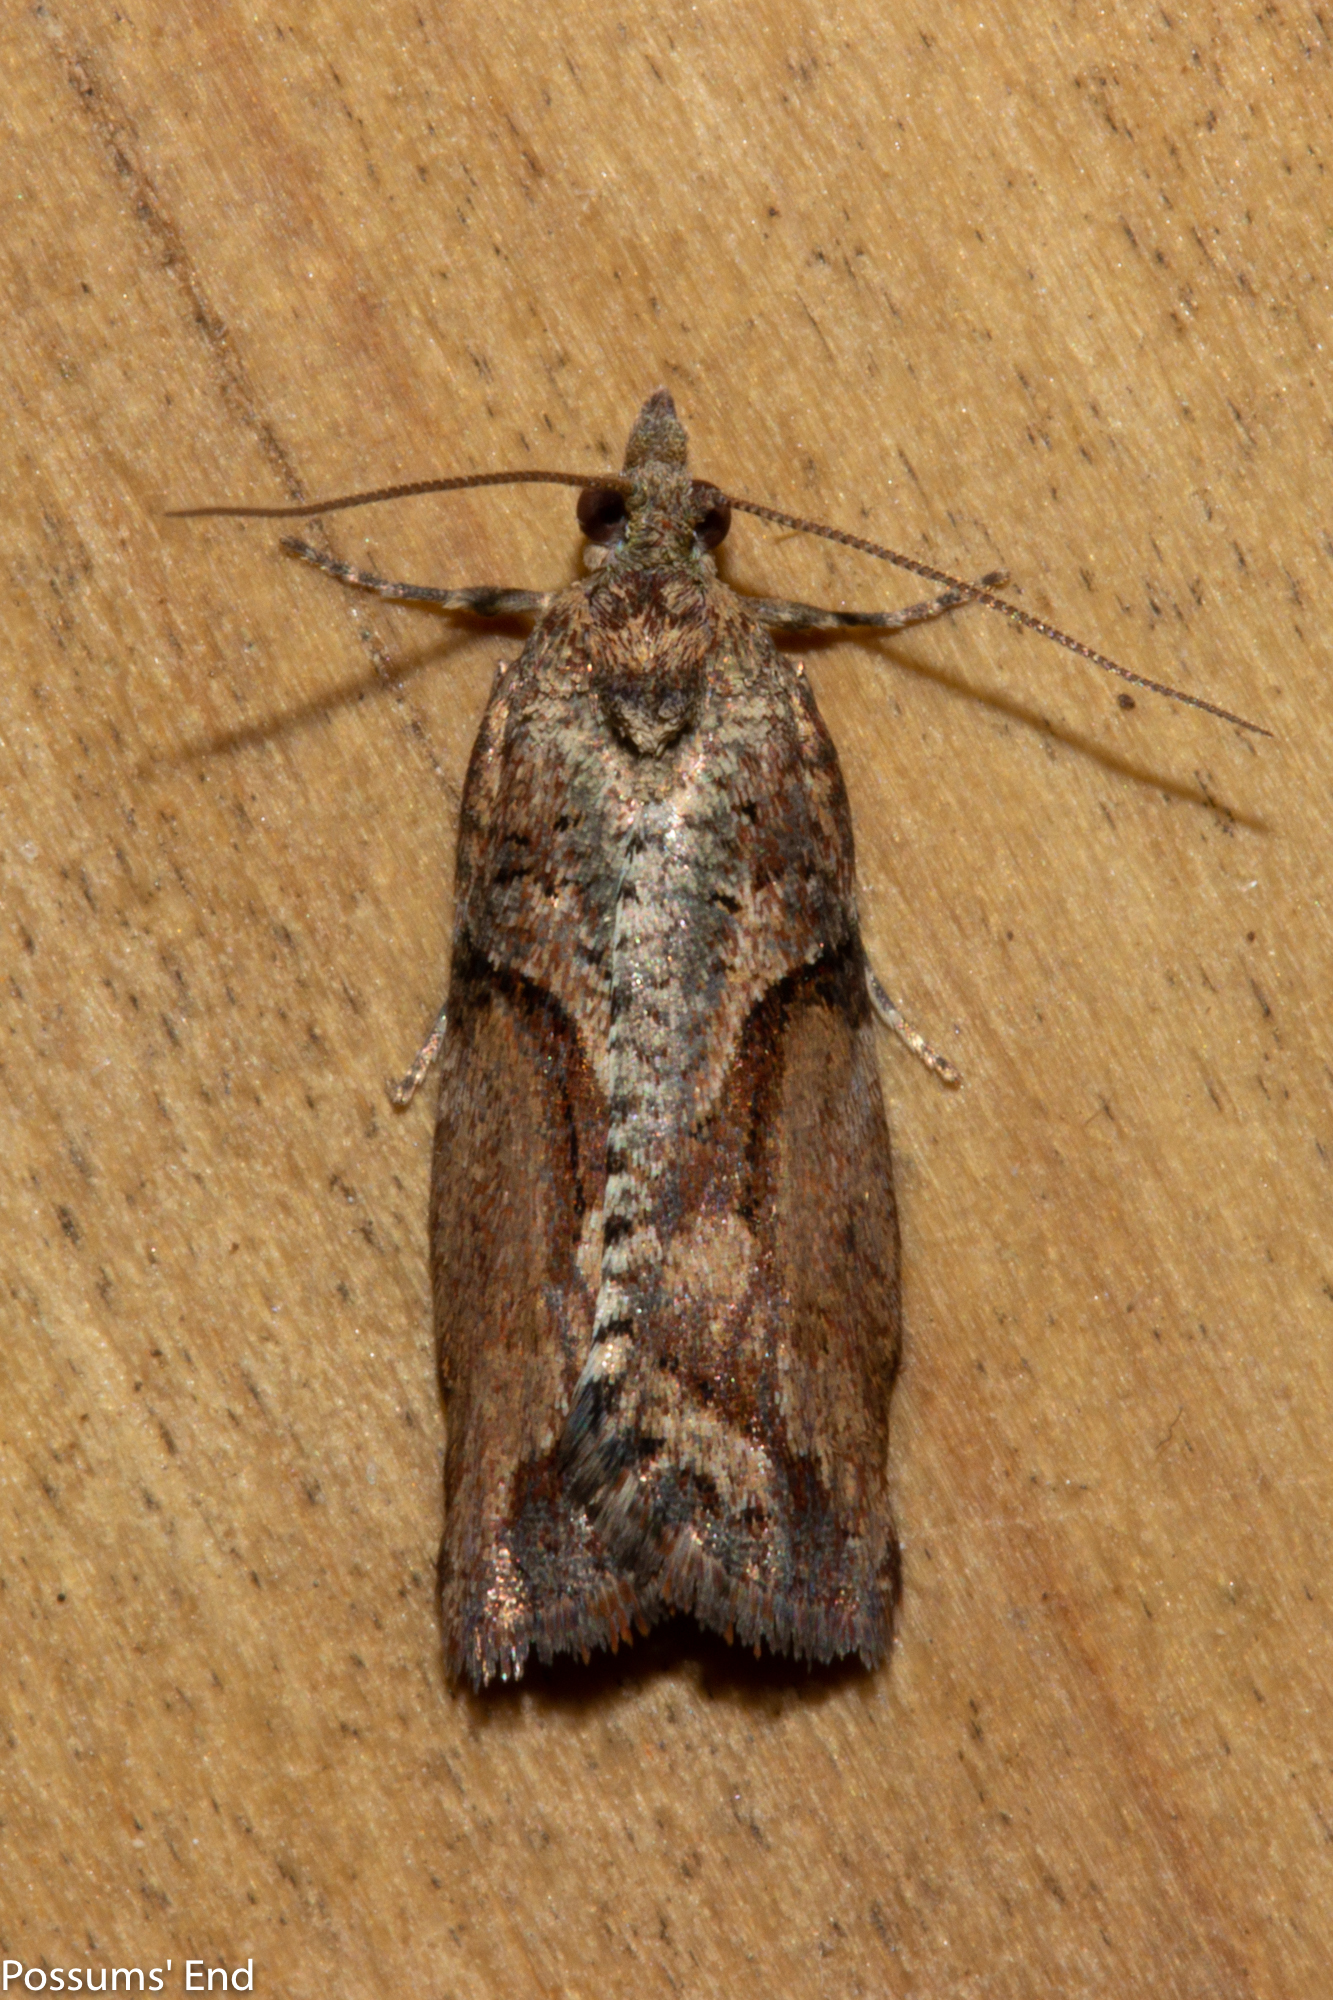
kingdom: Animalia
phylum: Arthropoda
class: Insecta
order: Lepidoptera
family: Tortricidae
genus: Harmologa
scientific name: Harmologa scoliastis
